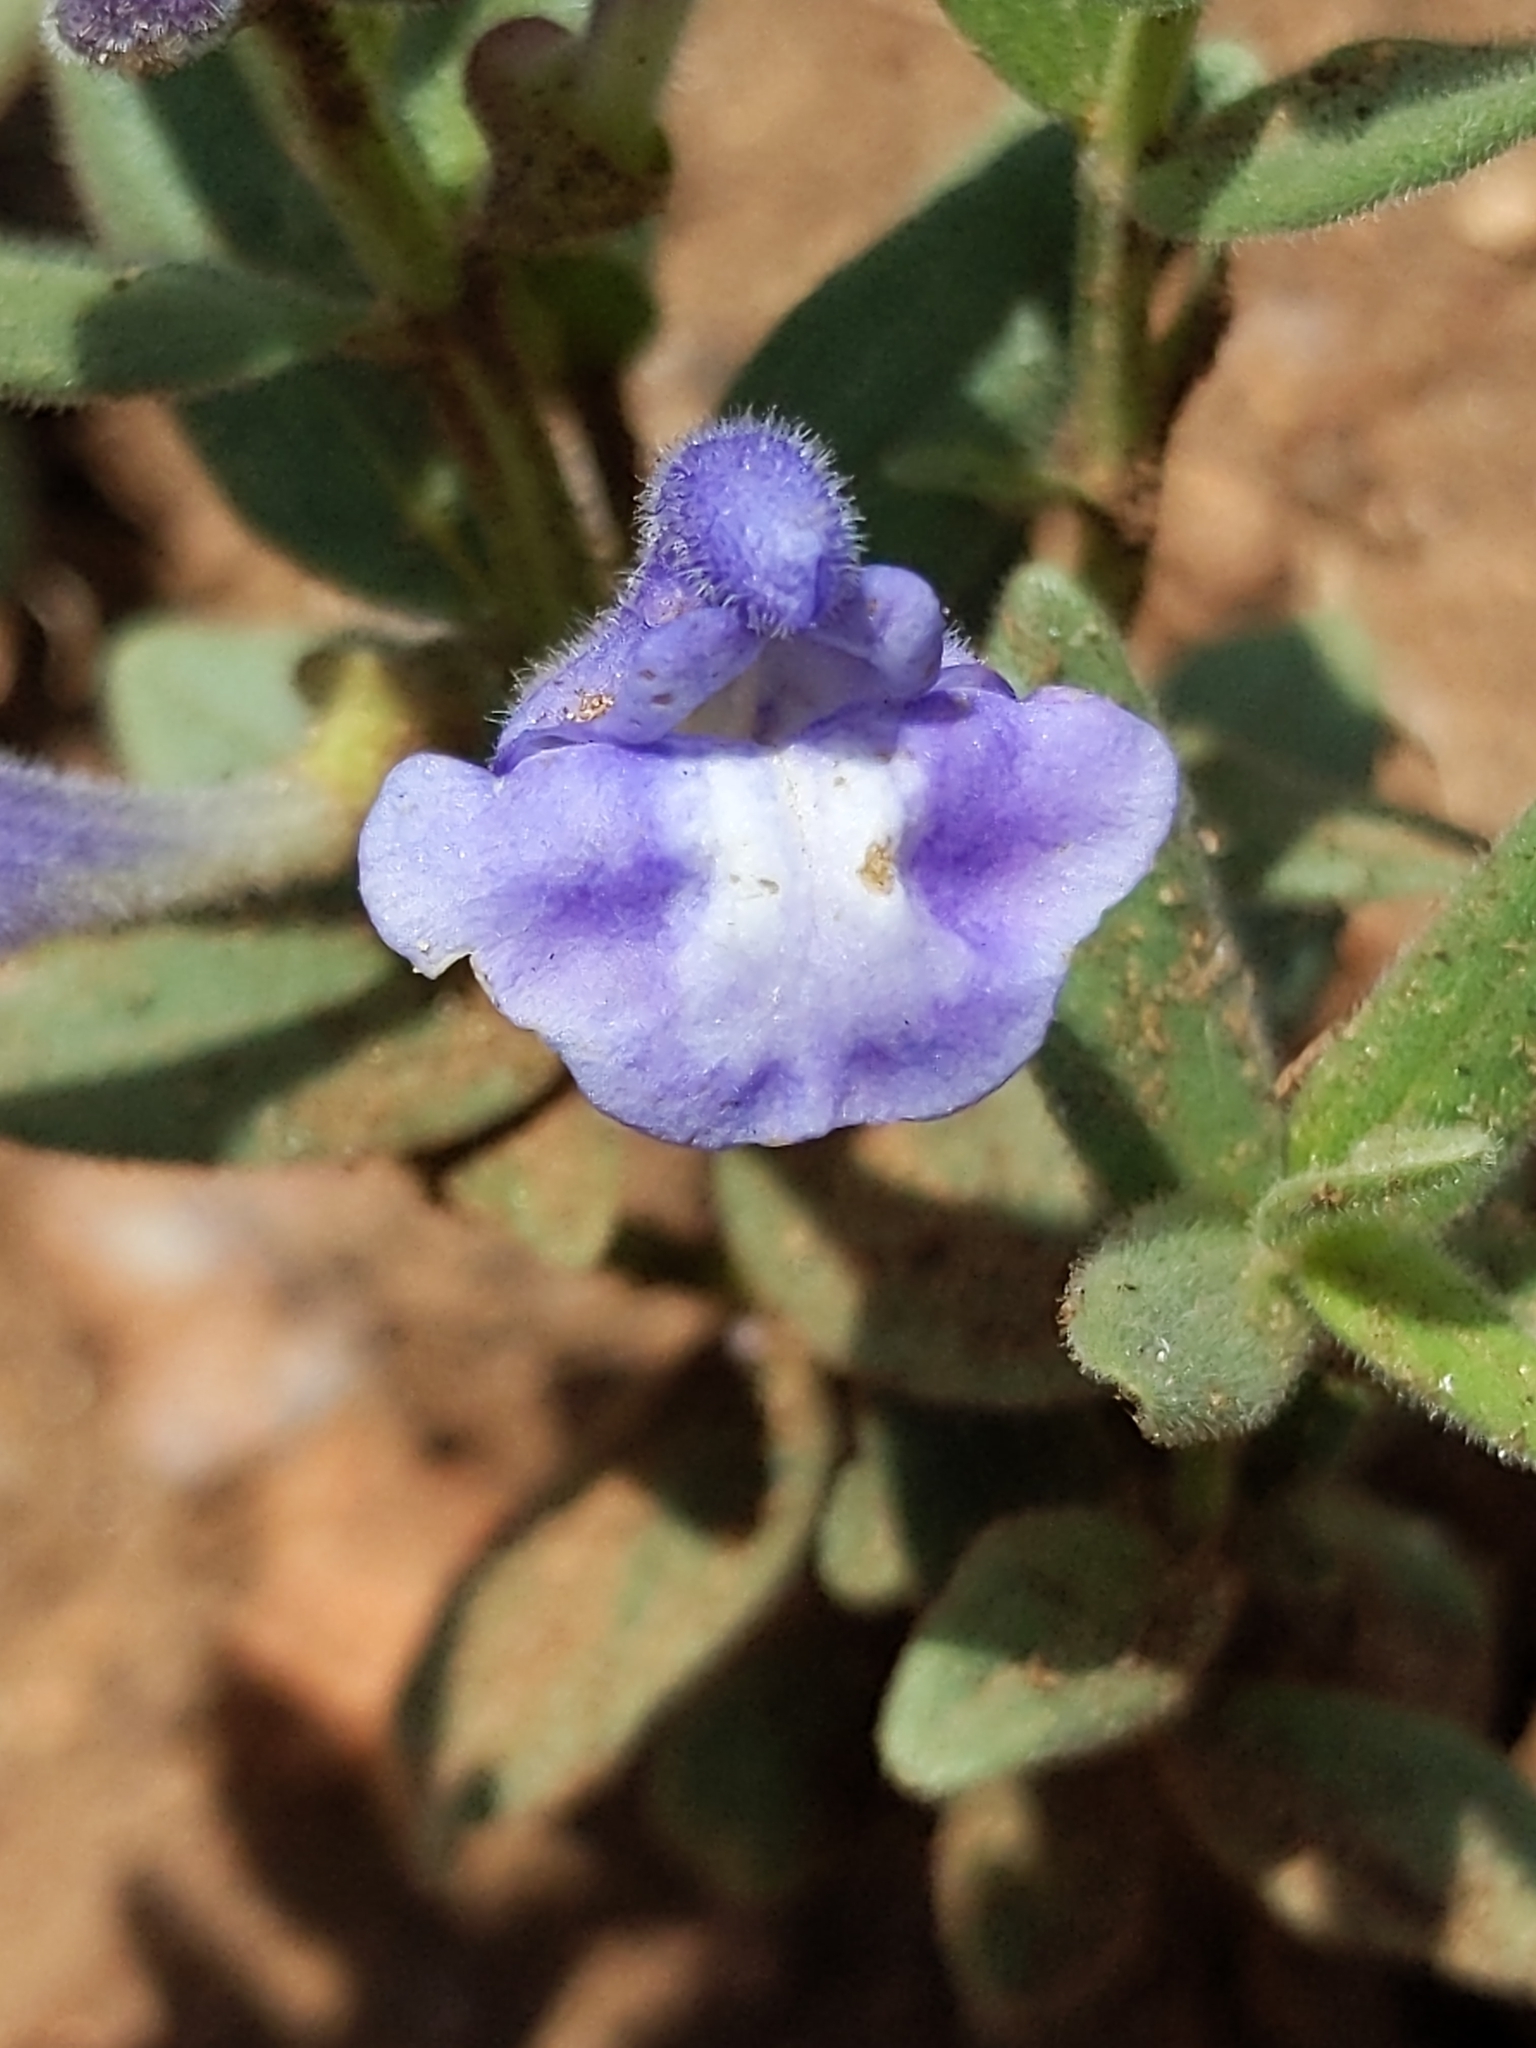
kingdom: Plantae
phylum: Tracheophyta
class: Magnoliopsida
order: Lamiales
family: Lamiaceae
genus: Scutellaria
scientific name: Scutellaria brittonii
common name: Britton's skullcap
